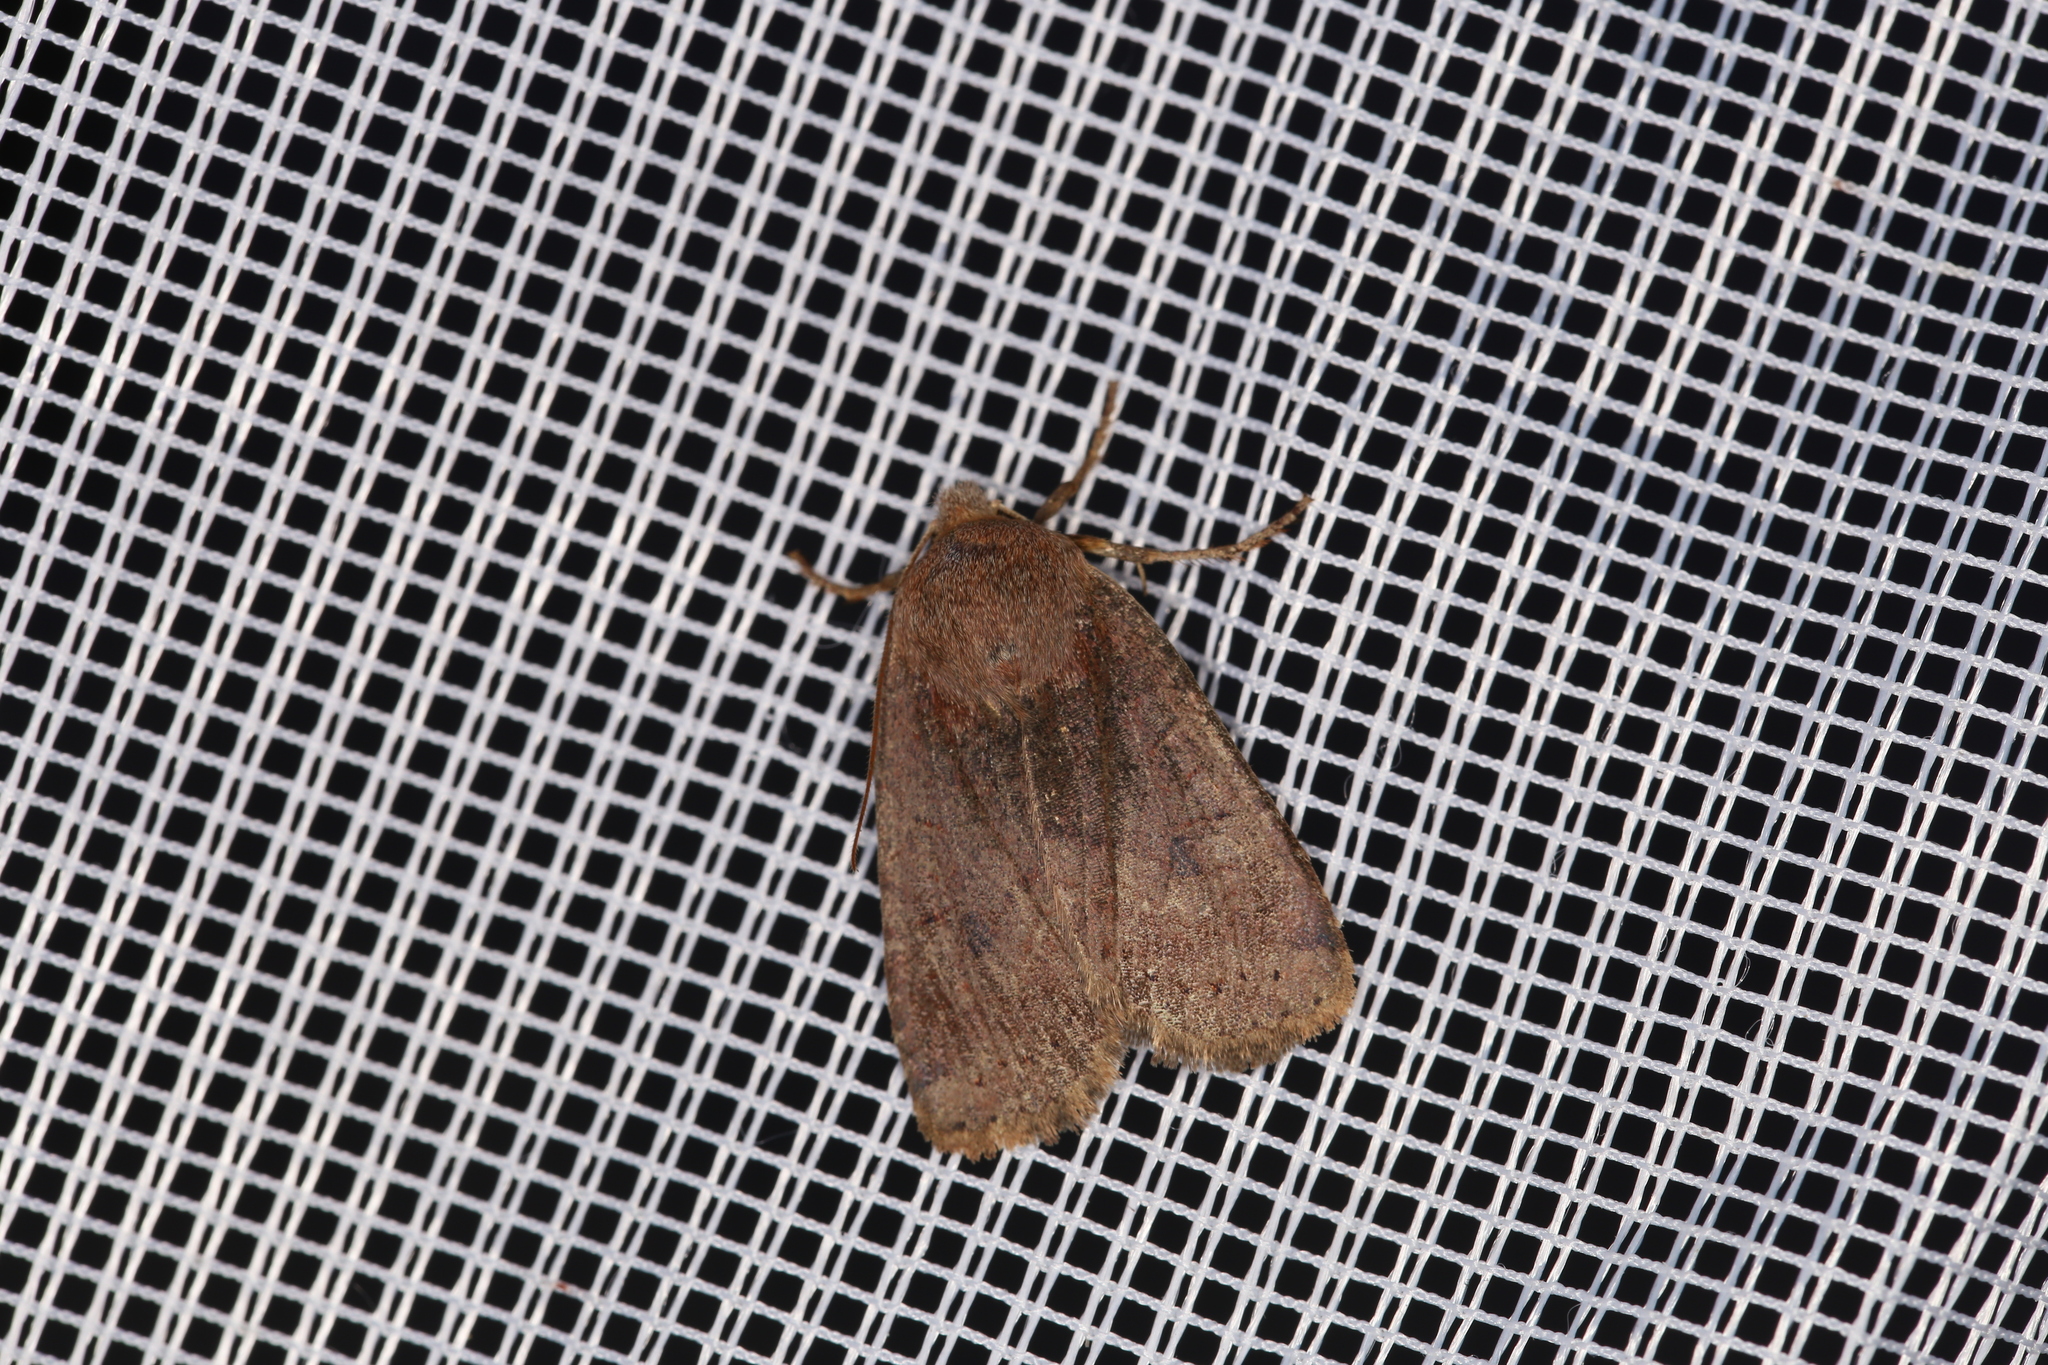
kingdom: Animalia
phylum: Arthropoda
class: Insecta
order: Lepidoptera
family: Noctuidae
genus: Conistra
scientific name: Conistra vaccinii
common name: Chestnut
